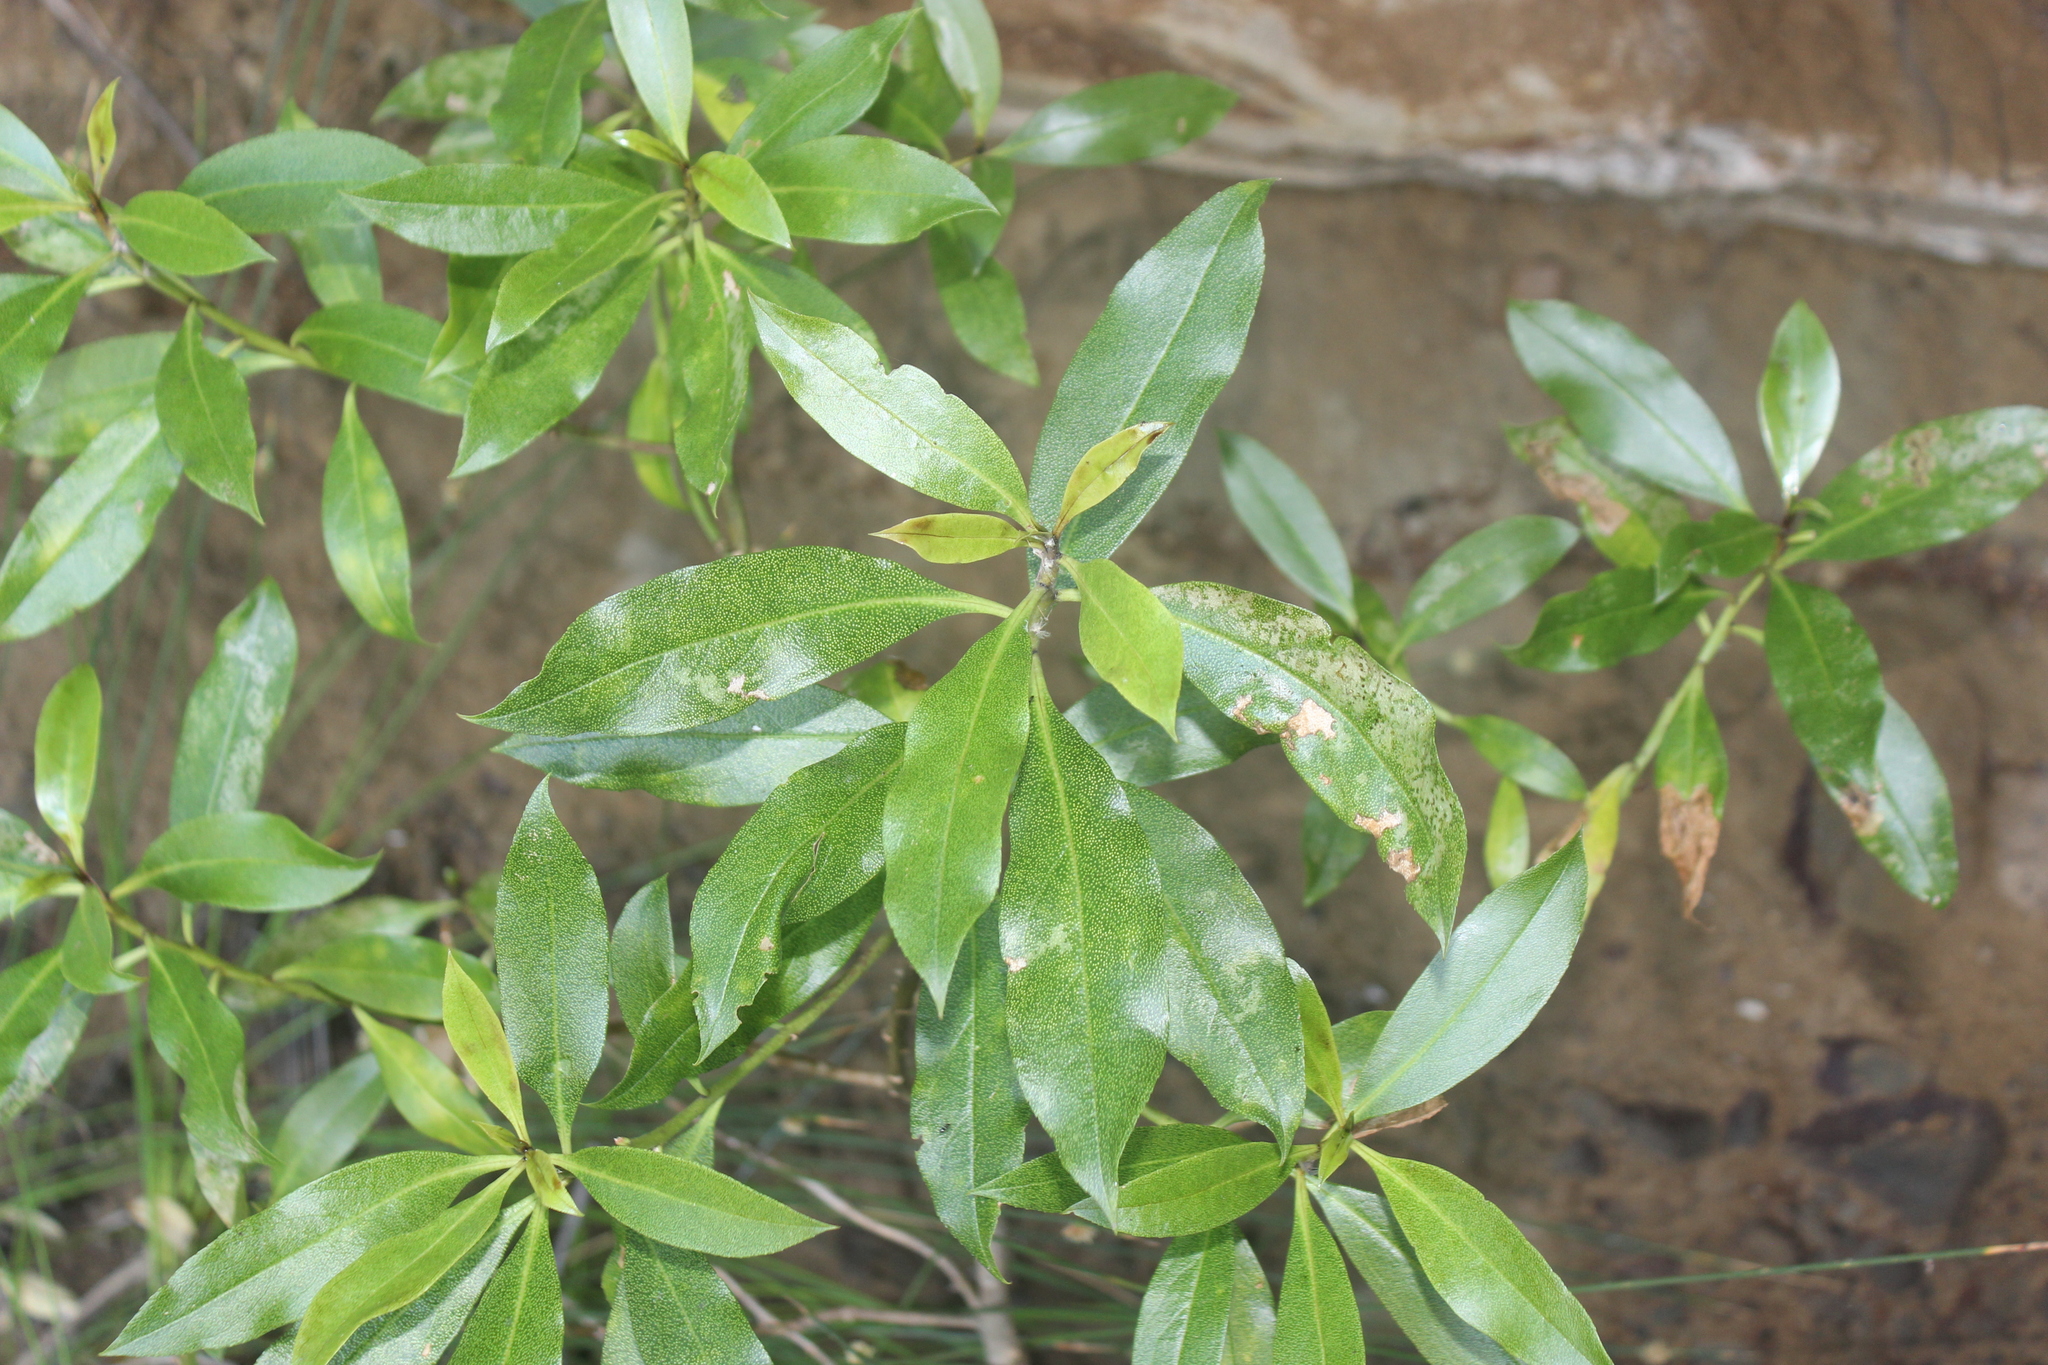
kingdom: Plantae
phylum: Tracheophyta
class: Magnoliopsida
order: Lamiales
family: Scrophulariaceae
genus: Myoporum
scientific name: Myoporum laetum
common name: Ngaio tree
